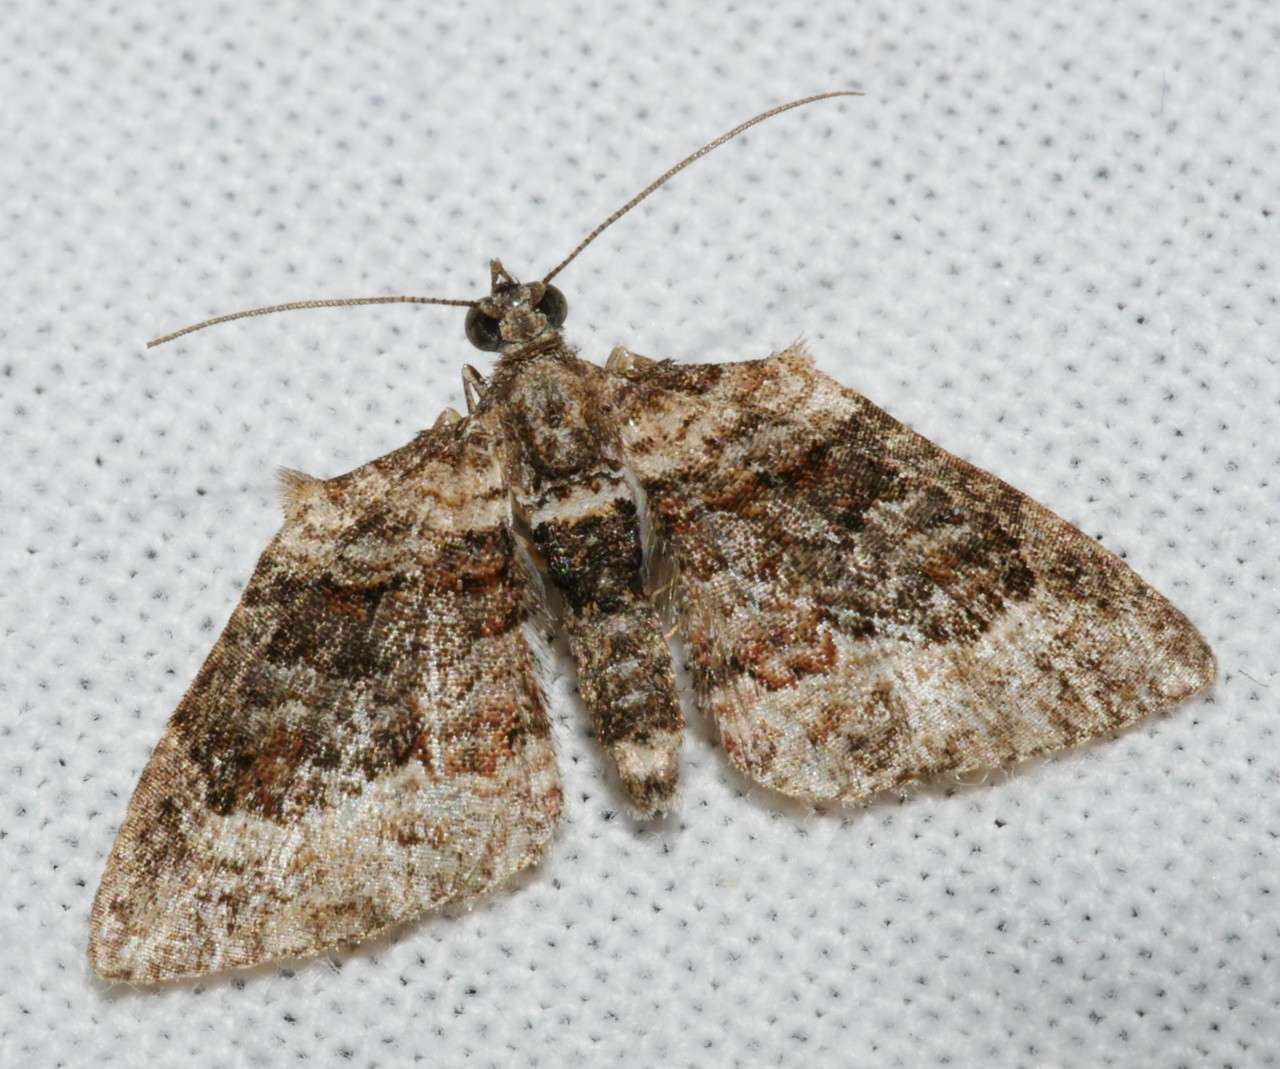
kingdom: Animalia
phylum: Arthropoda
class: Insecta
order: Lepidoptera
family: Geometridae
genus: Phrissogonus
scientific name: Phrissogonus laticostata
